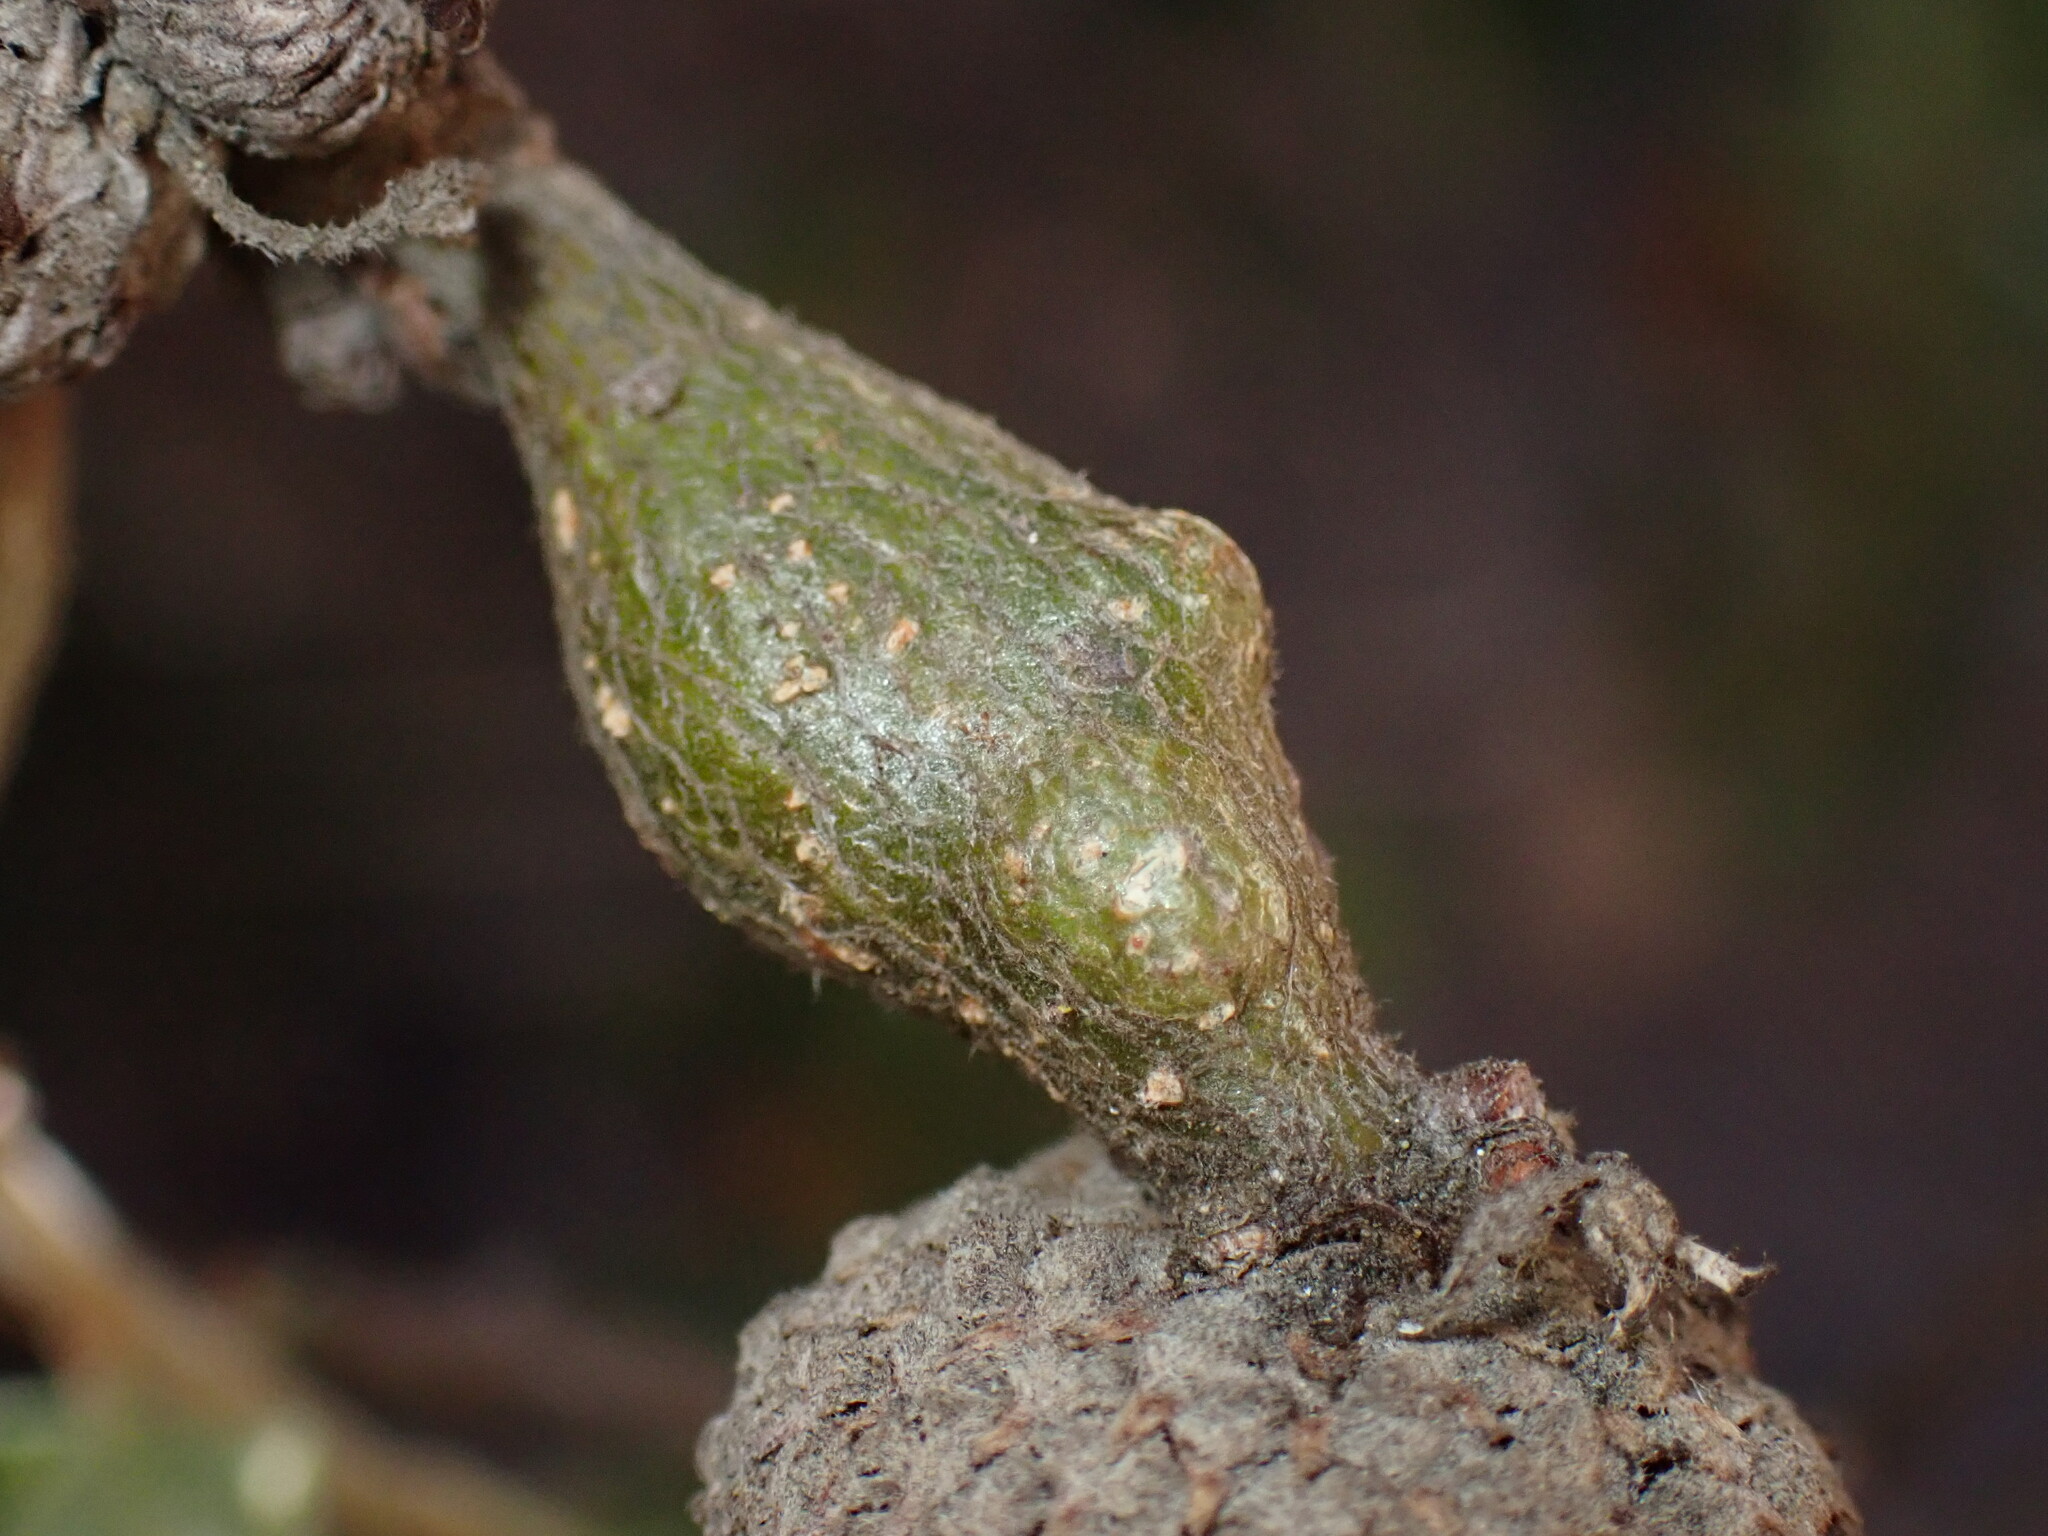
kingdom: Animalia
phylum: Arthropoda
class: Insecta
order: Hymenoptera
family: Cynipidae
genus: Andricus
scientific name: Andricus
